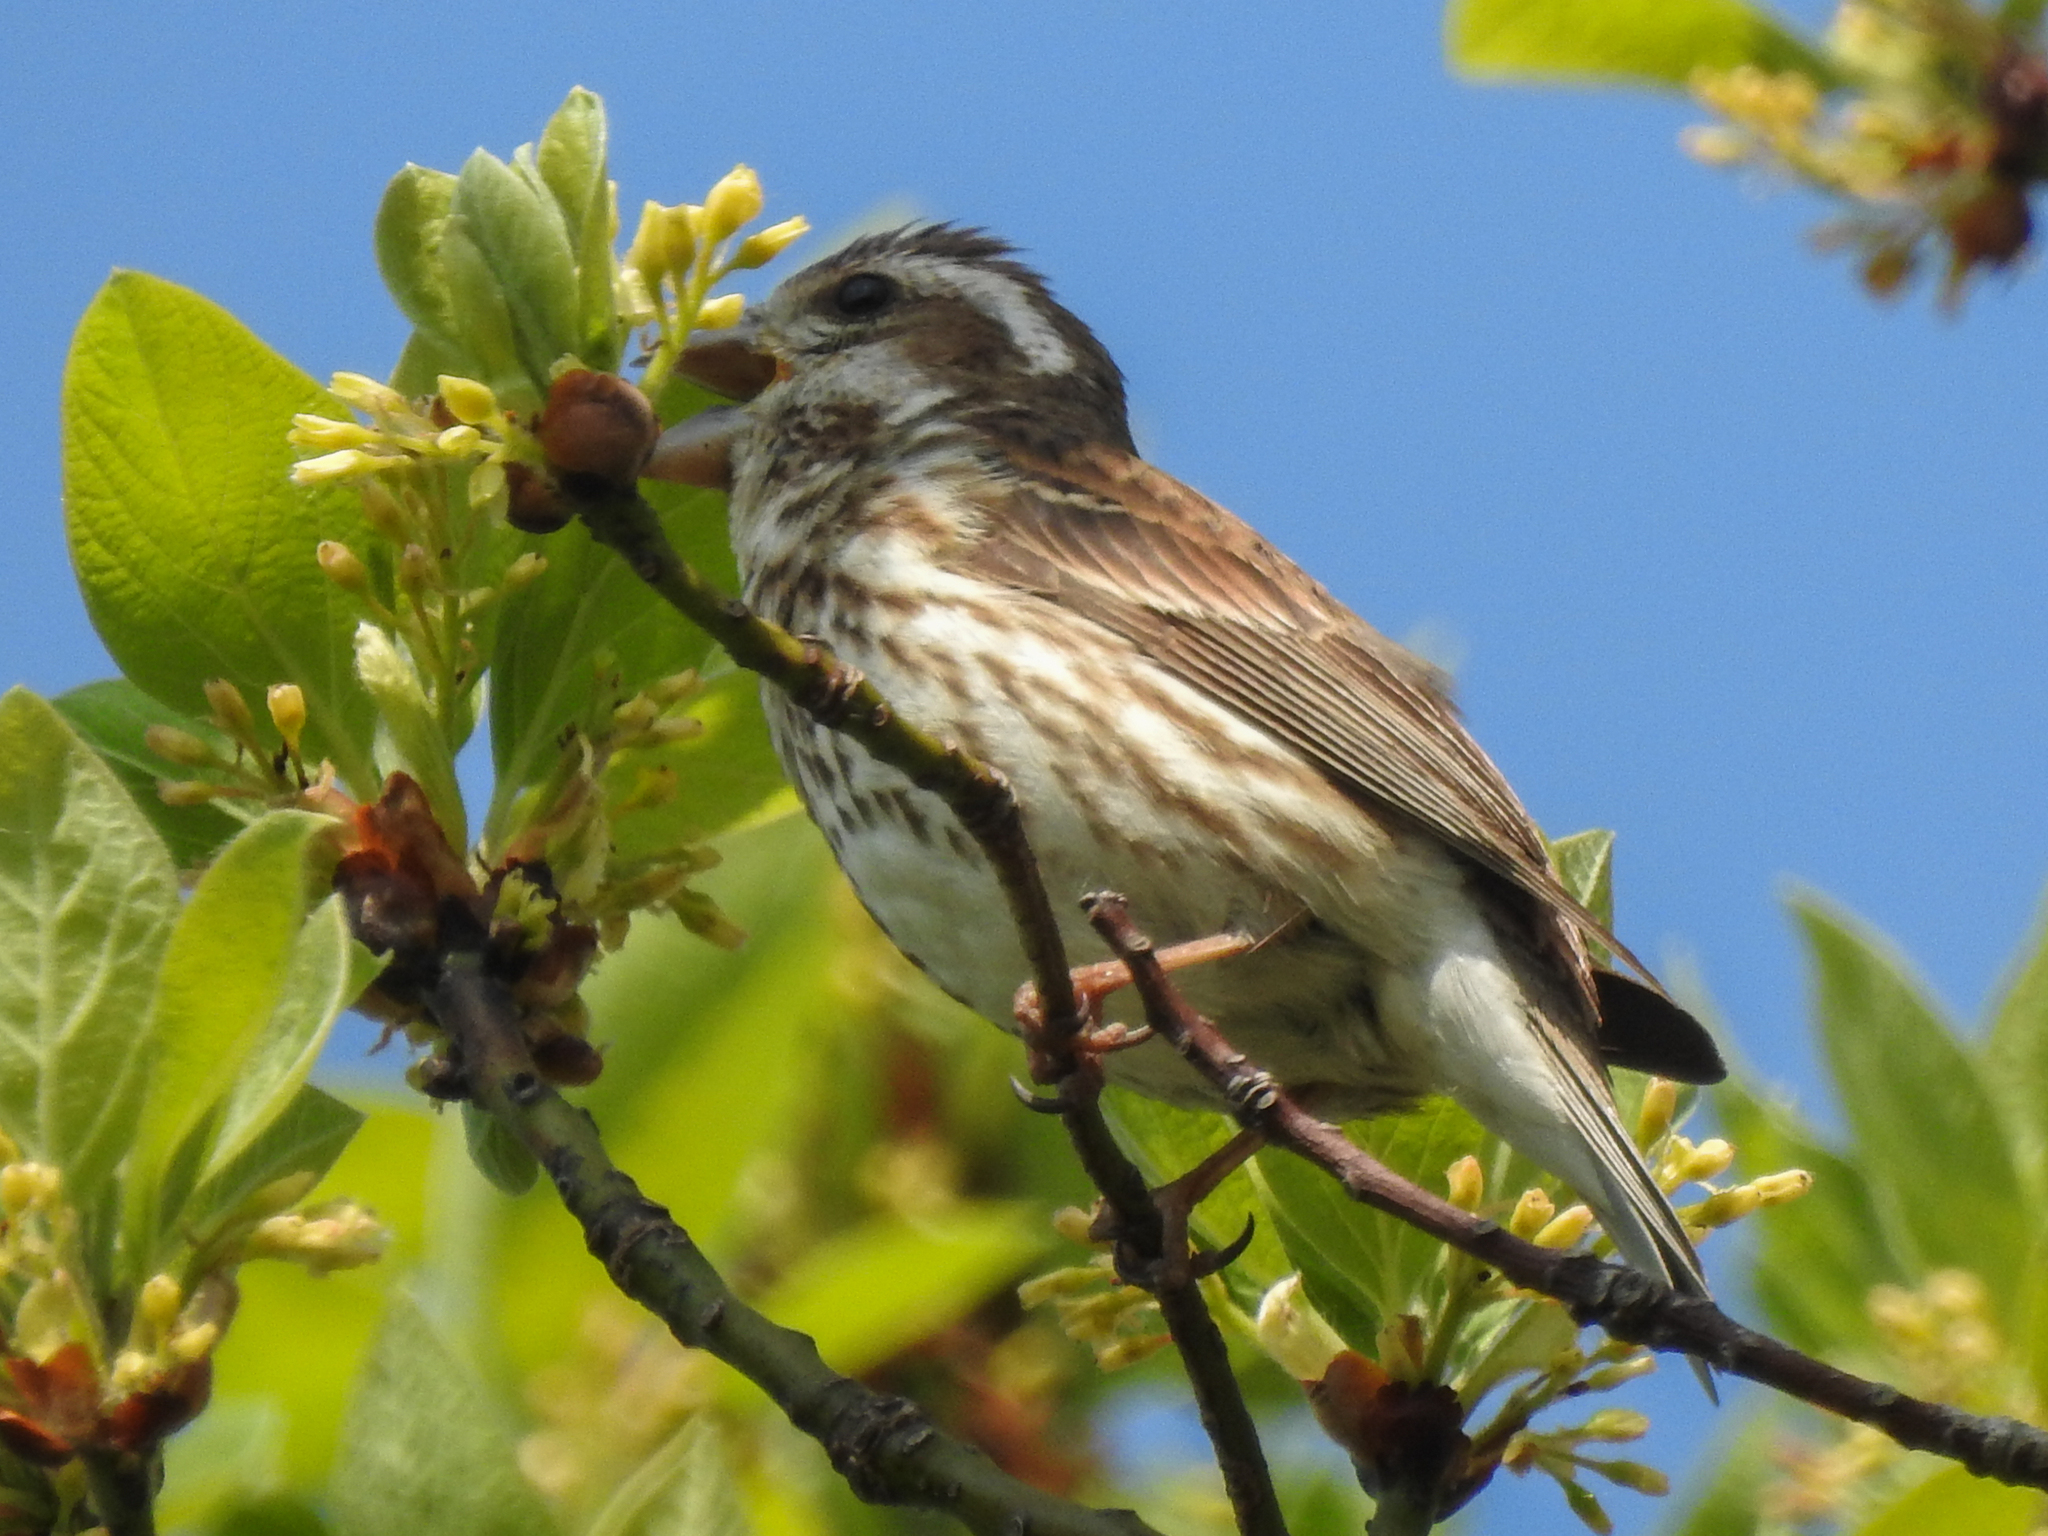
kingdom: Animalia
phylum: Chordata
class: Aves
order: Passeriformes
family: Fringillidae
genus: Haemorhous
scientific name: Haemorhous purpureus
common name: Purple finch
